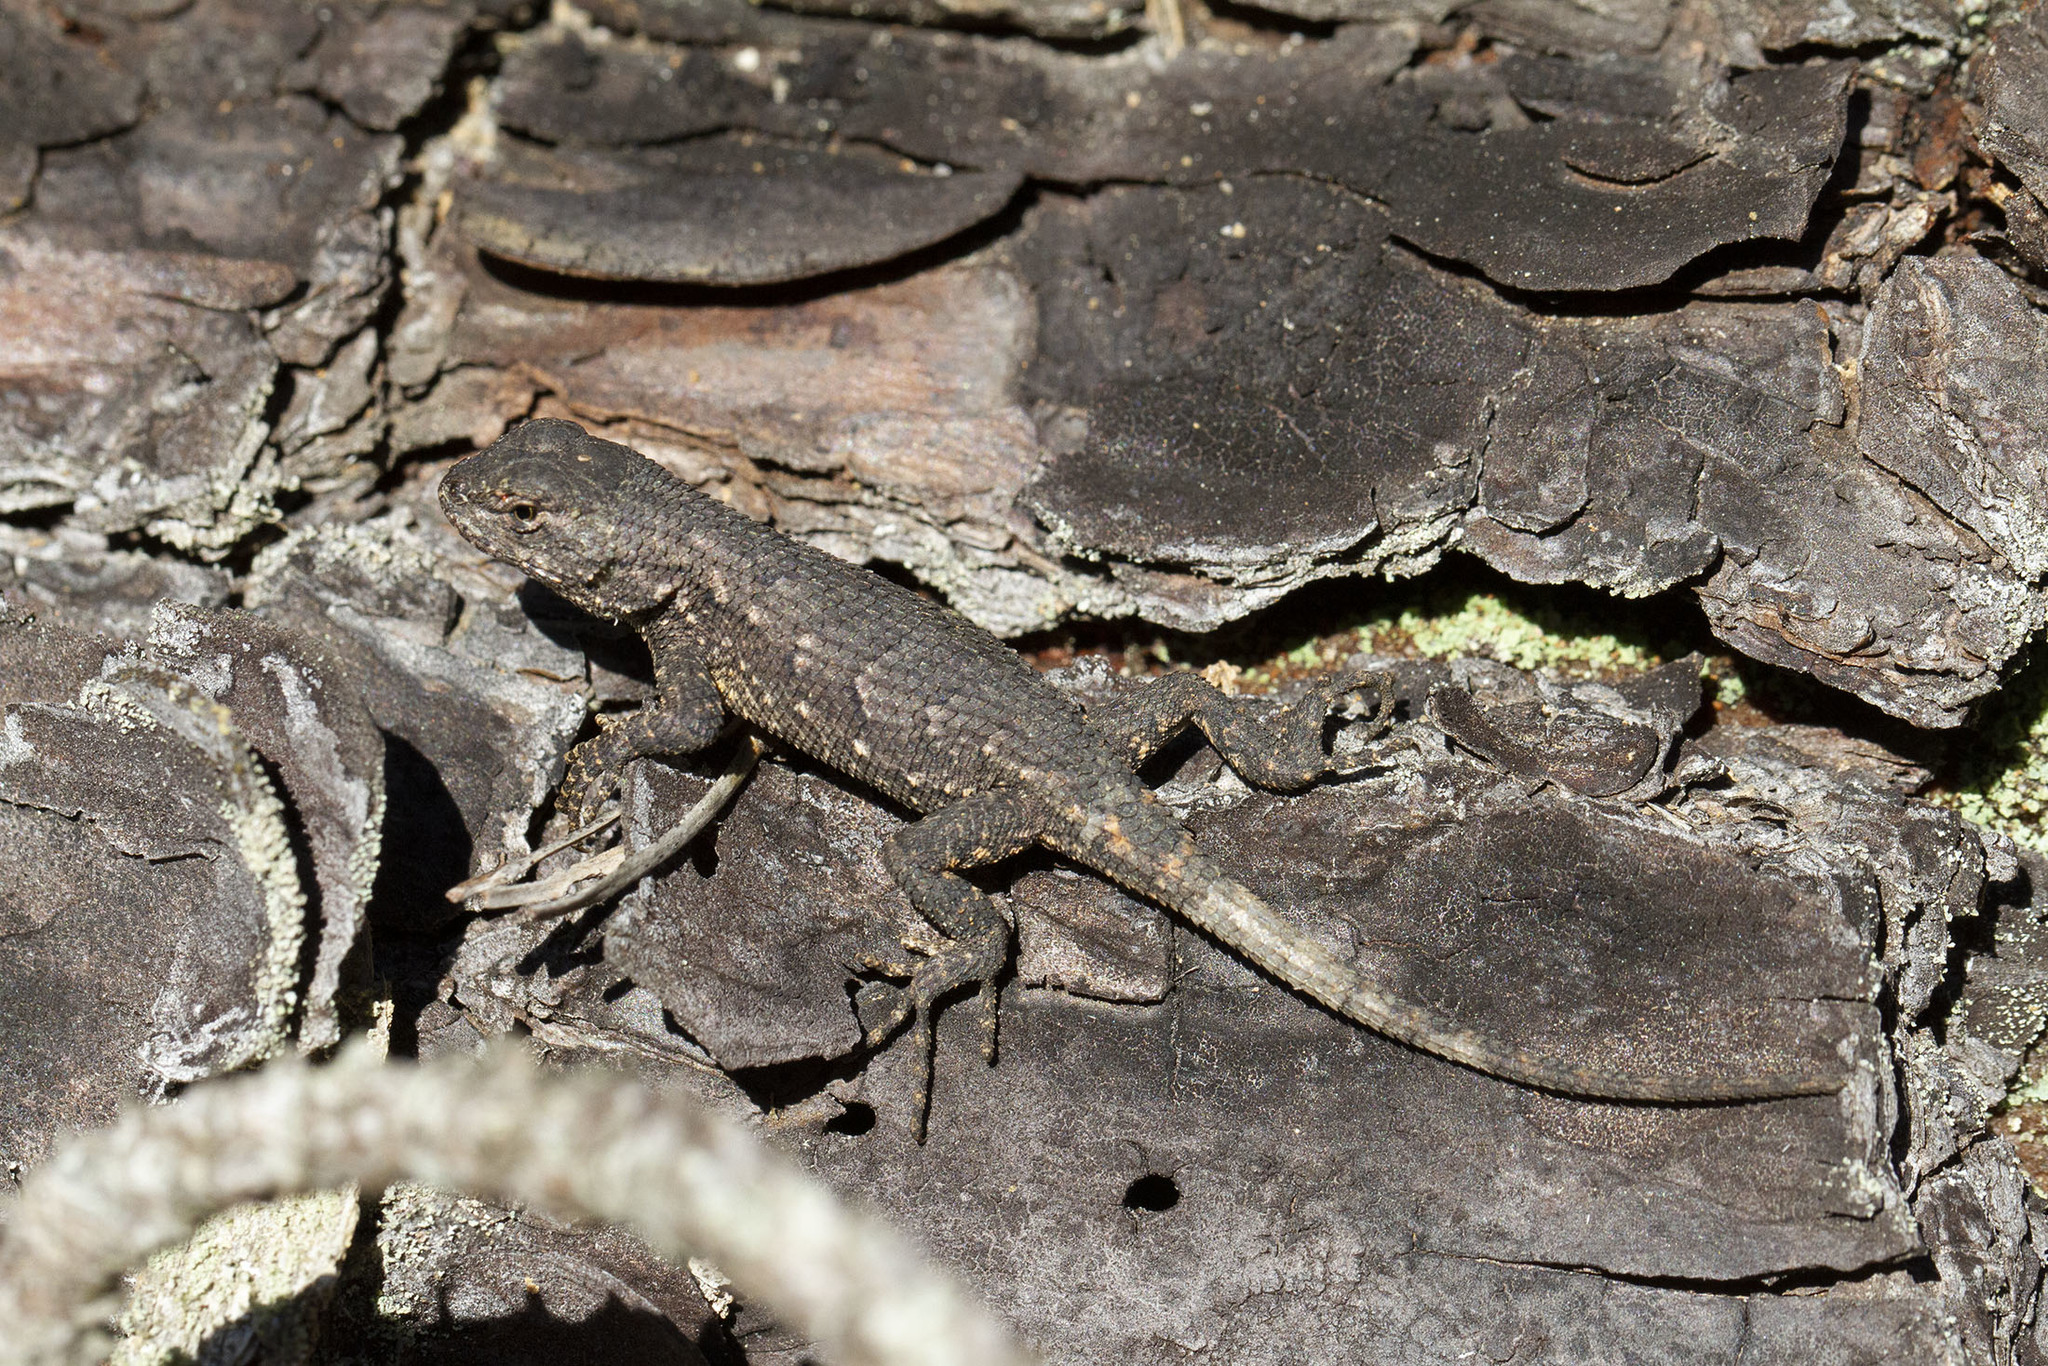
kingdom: Animalia
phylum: Chordata
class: Squamata
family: Phrynosomatidae
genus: Sceloporus
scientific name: Sceloporus undulatus
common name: Eastern fence lizard
